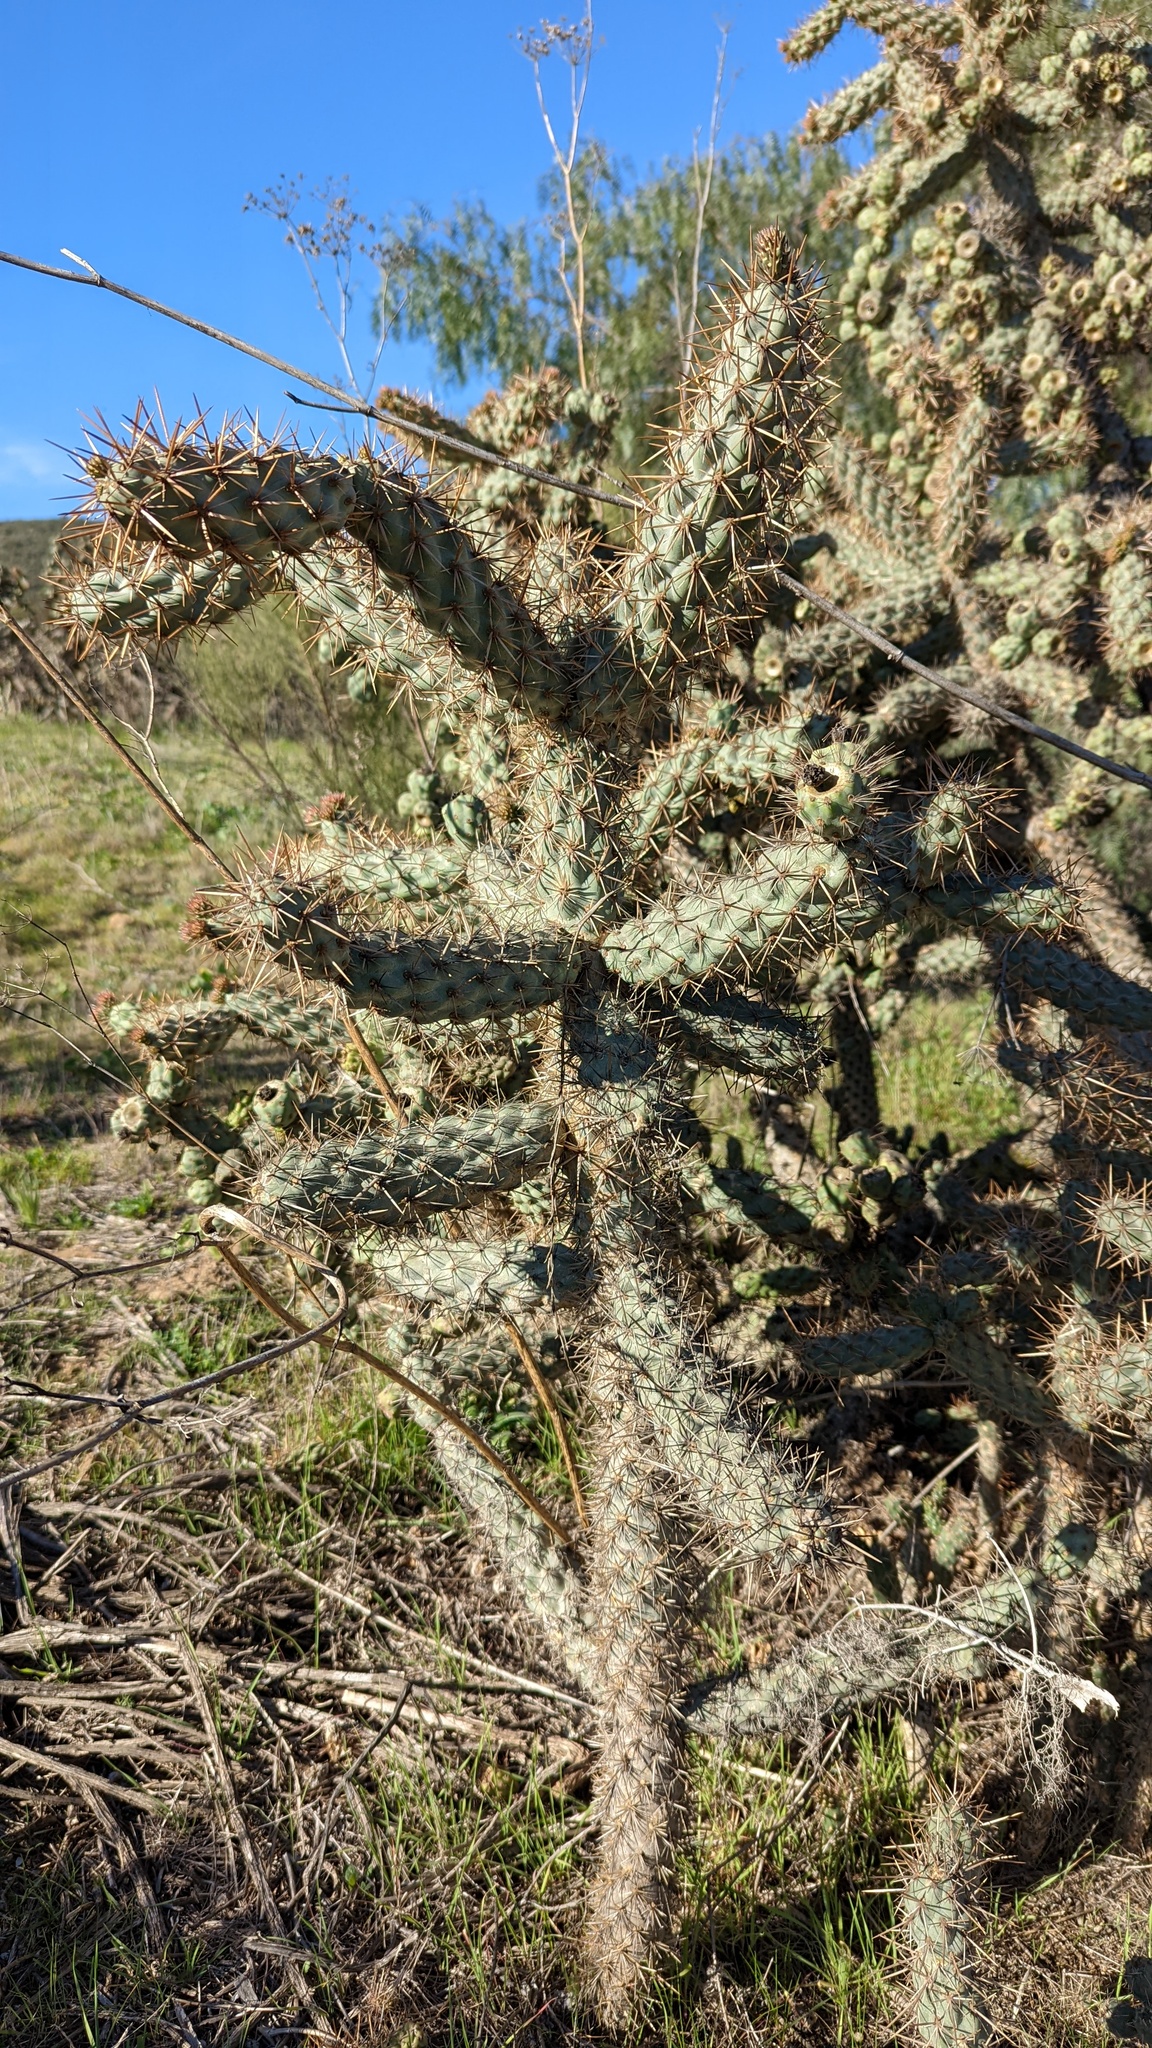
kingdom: Plantae
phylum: Tracheophyta
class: Magnoliopsida
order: Caryophyllales
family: Cactaceae
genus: Cylindropuntia
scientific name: Cylindropuntia prolifera
